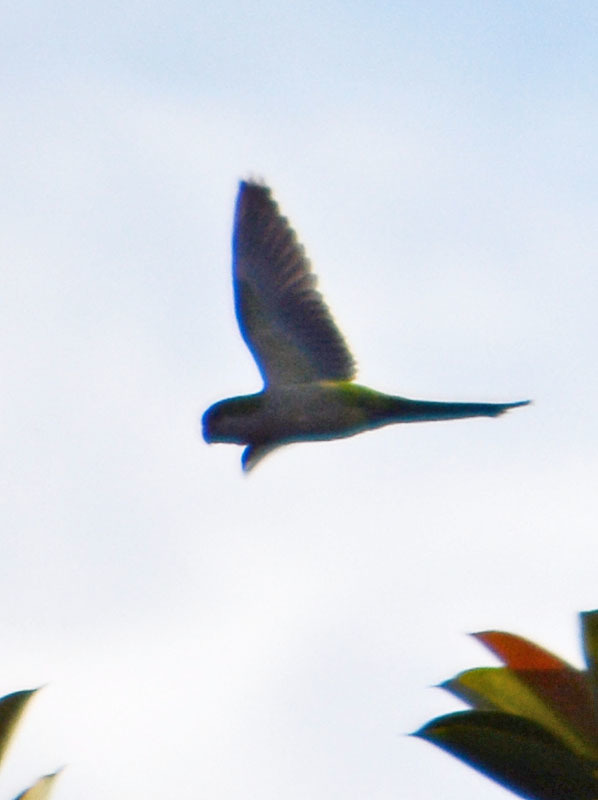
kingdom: Animalia
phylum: Chordata
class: Aves
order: Psittaciformes
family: Psittacidae
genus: Myiopsitta
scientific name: Myiopsitta monachus
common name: Monk parakeet
